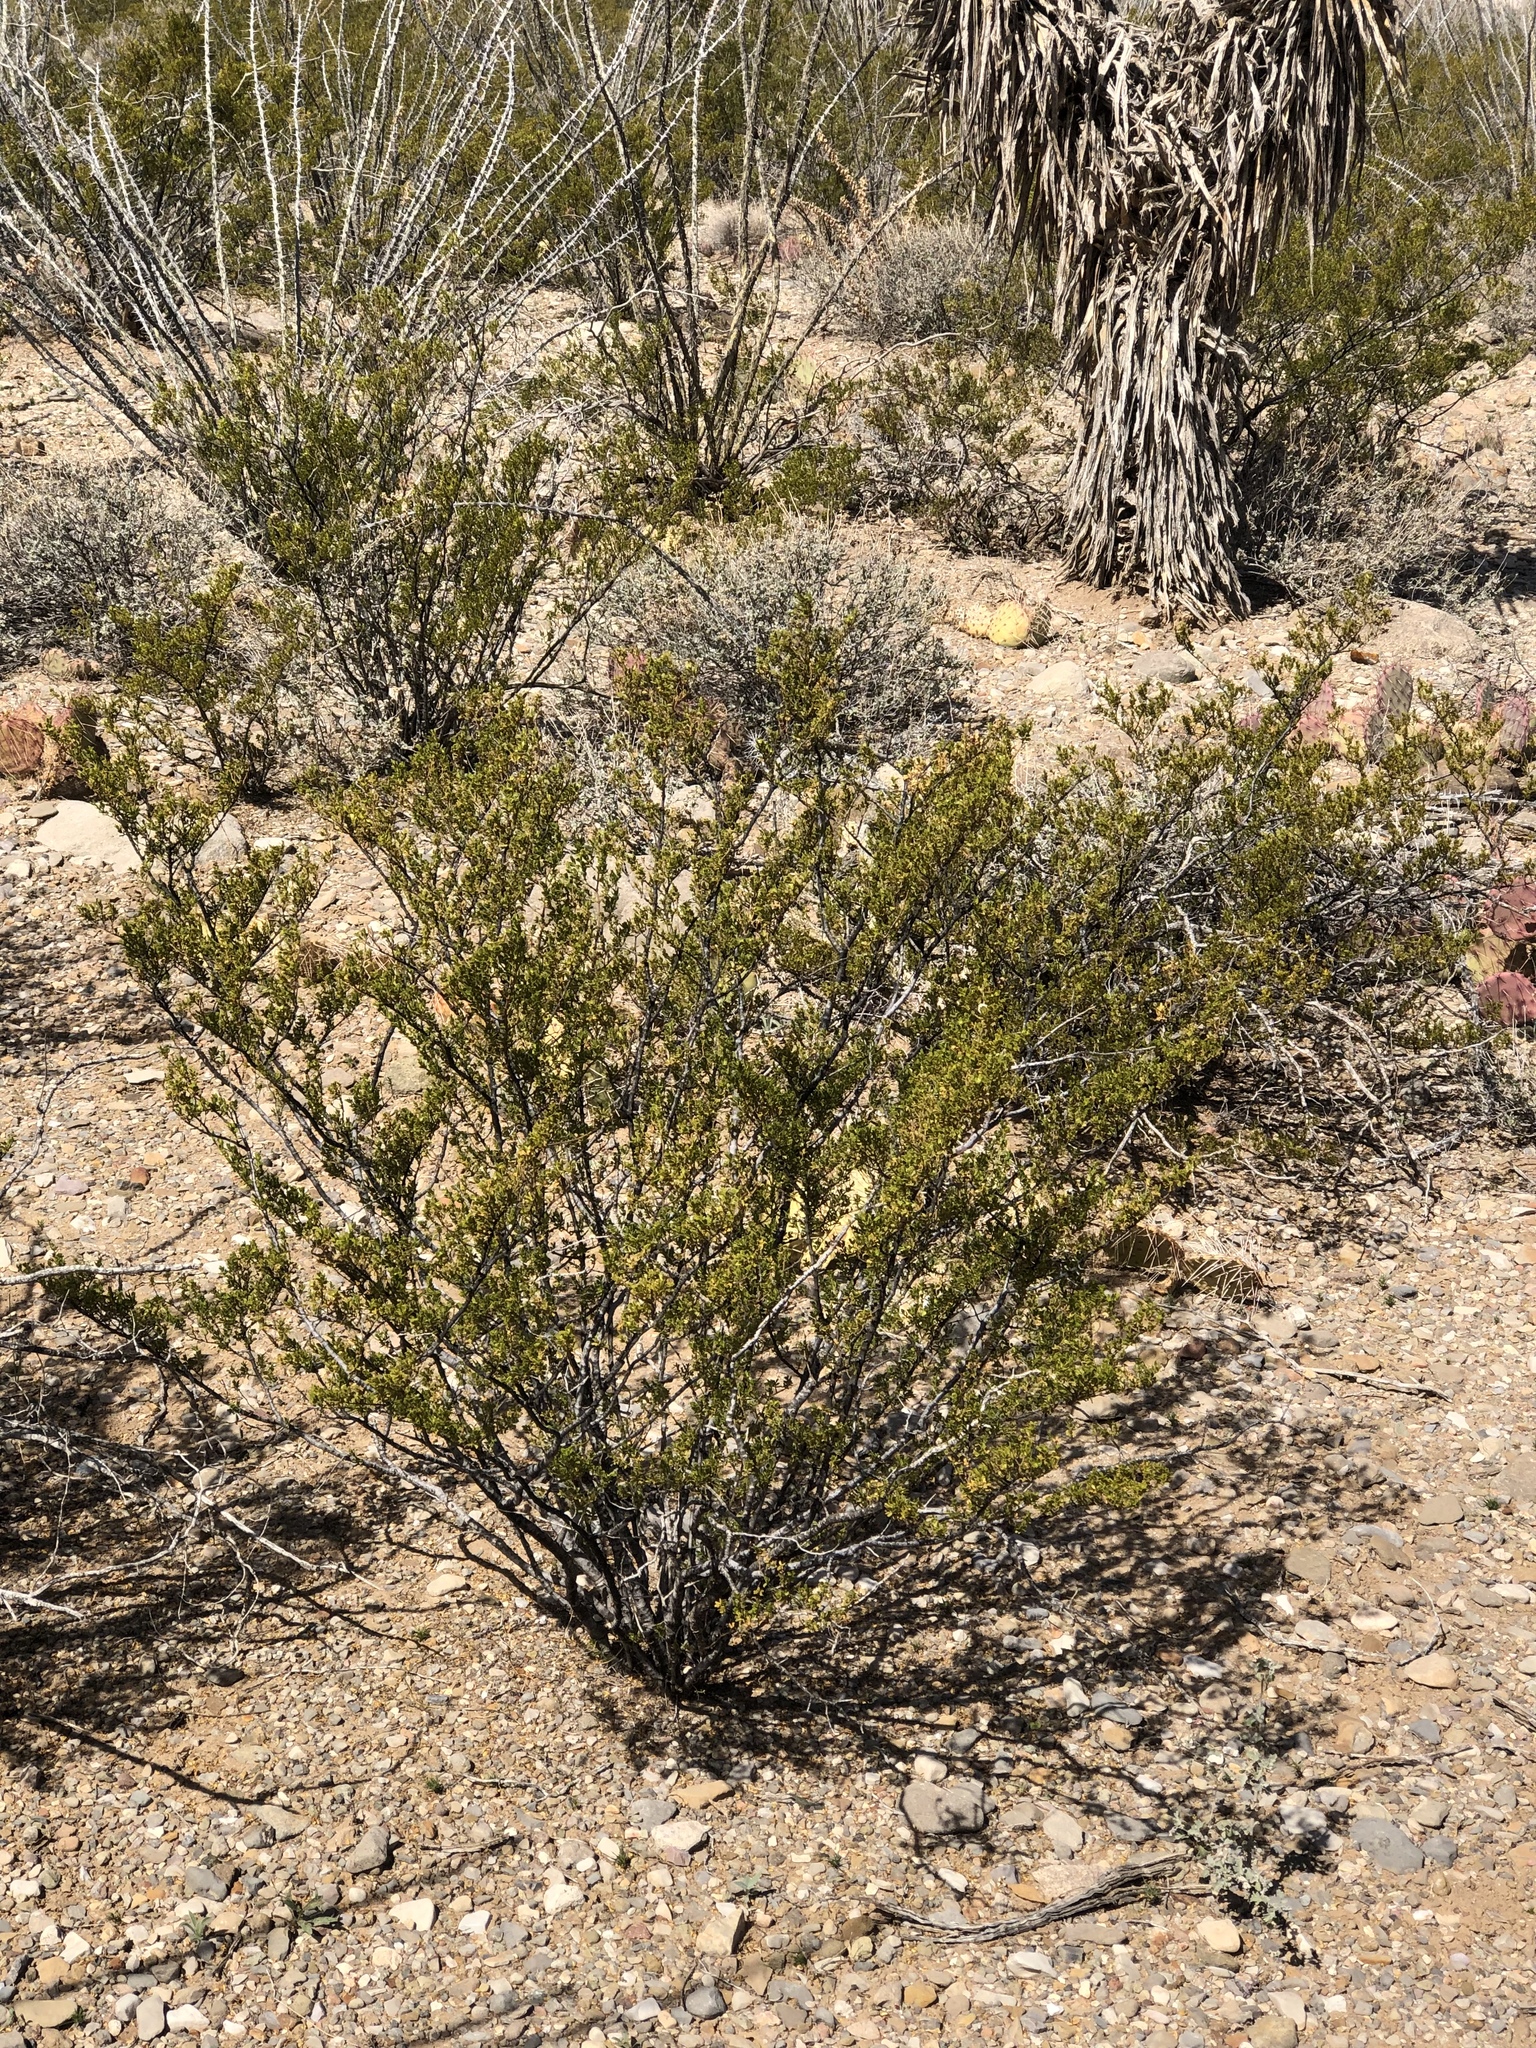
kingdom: Plantae
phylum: Tracheophyta
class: Magnoliopsida
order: Zygophyllales
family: Zygophyllaceae
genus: Larrea
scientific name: Larrea tridentata
